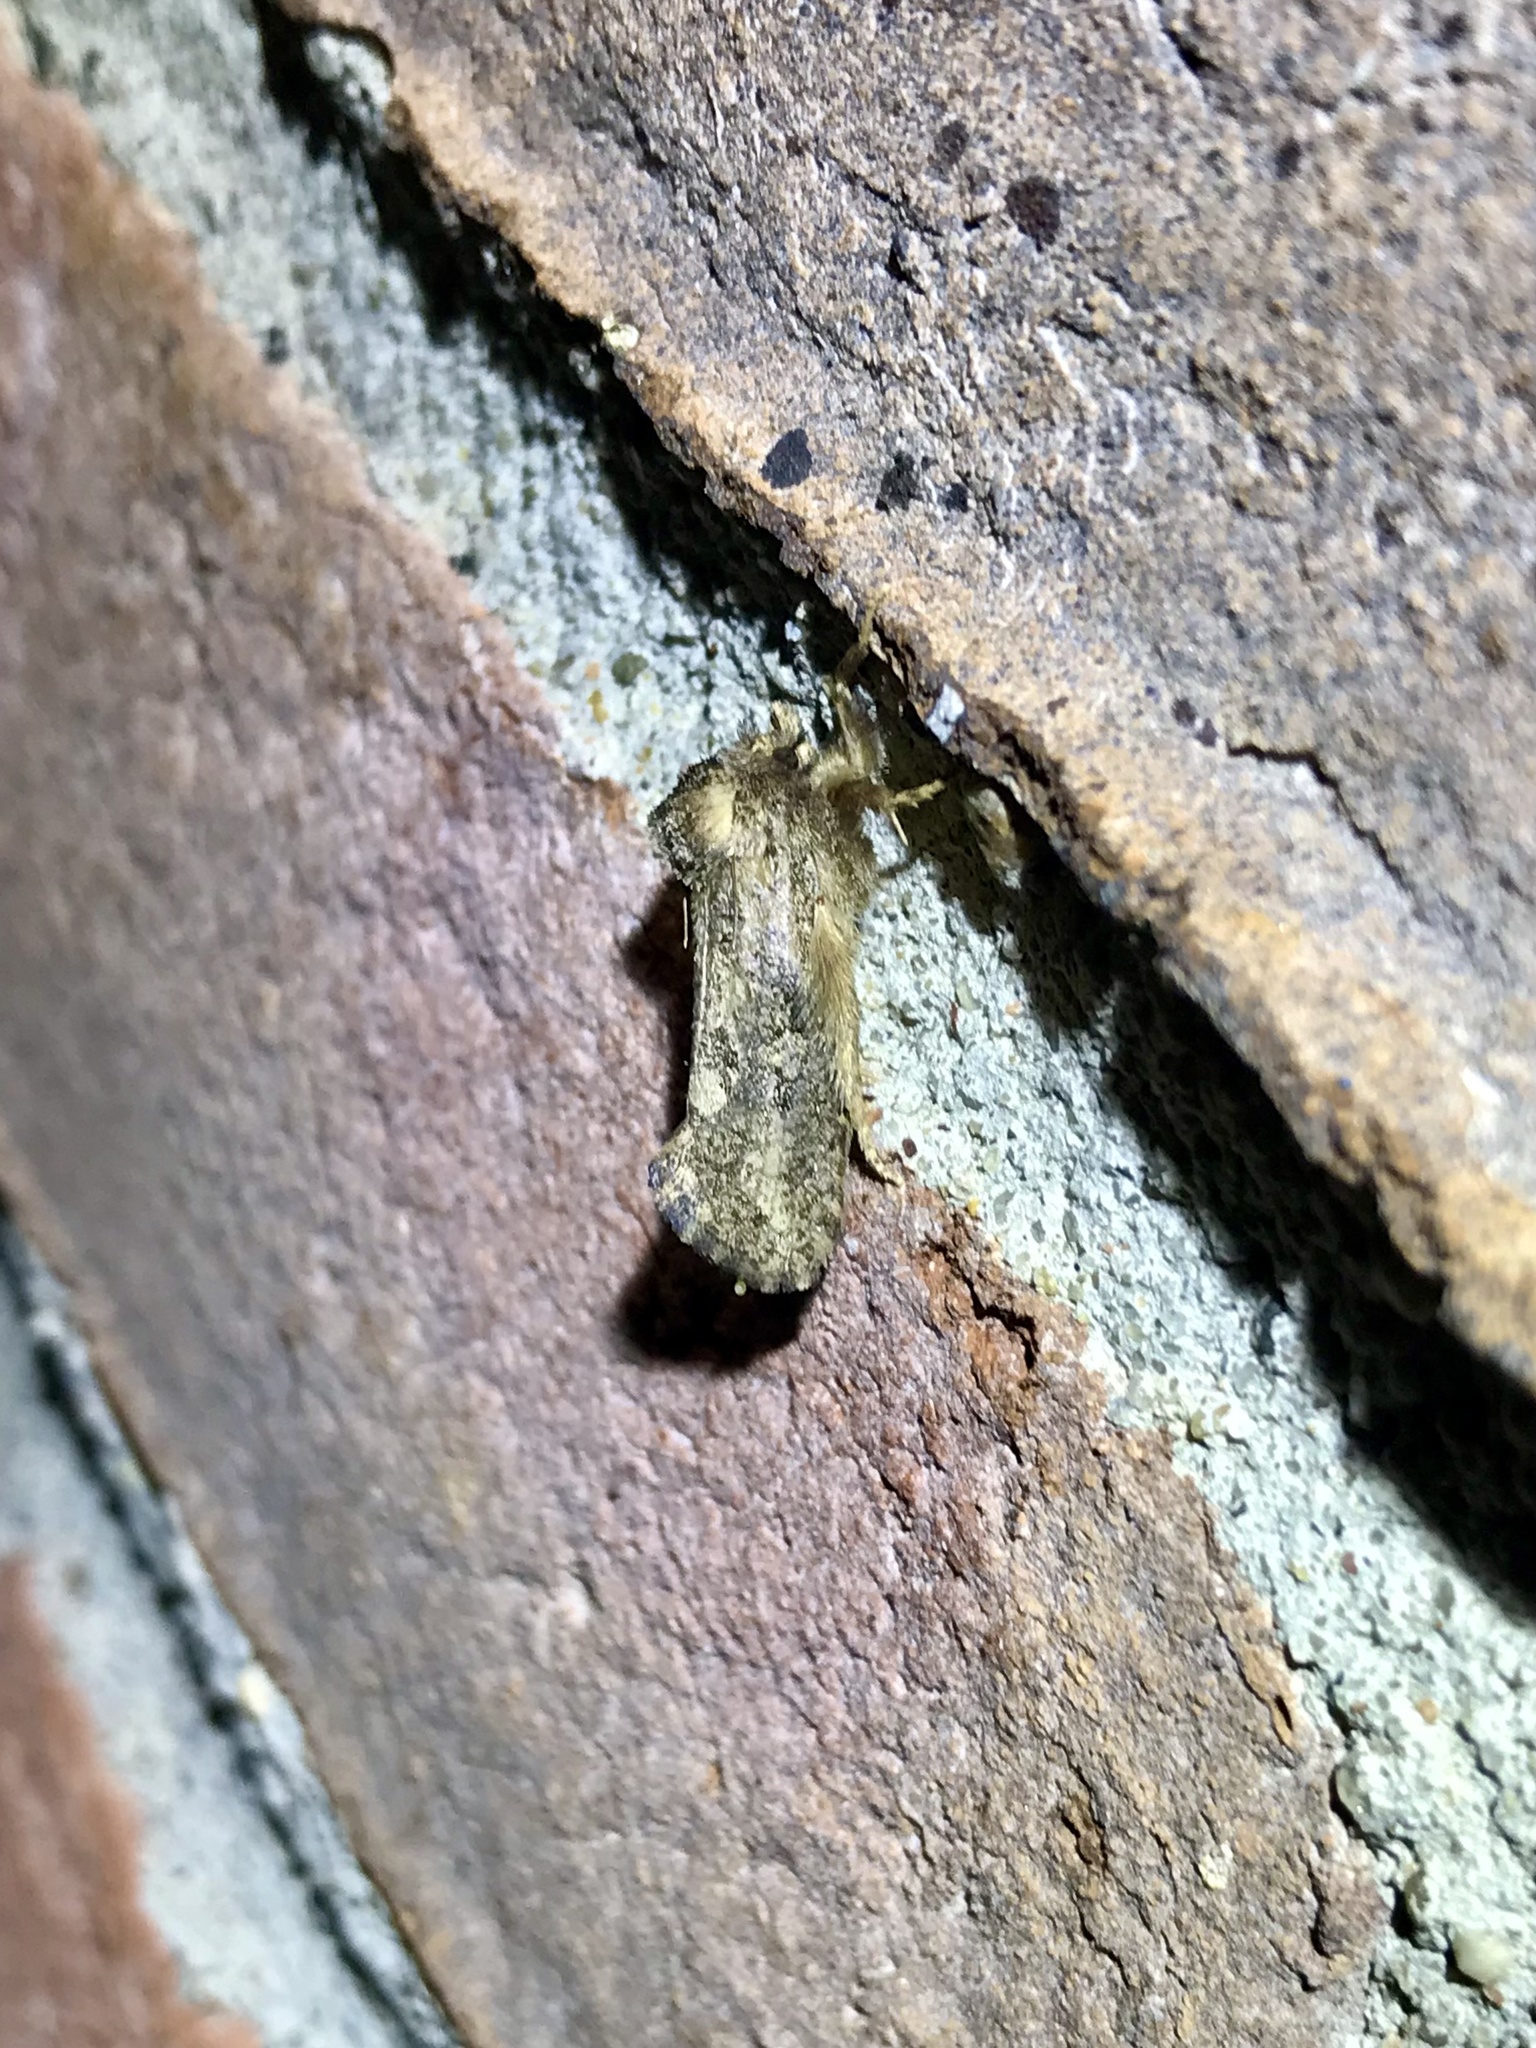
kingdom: Animalia
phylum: Arthropoda
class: Insecta
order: Lepidoptera
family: Tineidae
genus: Acrolophus
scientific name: Acrolophus arcanella
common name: Arcane grass tubeworm moth
